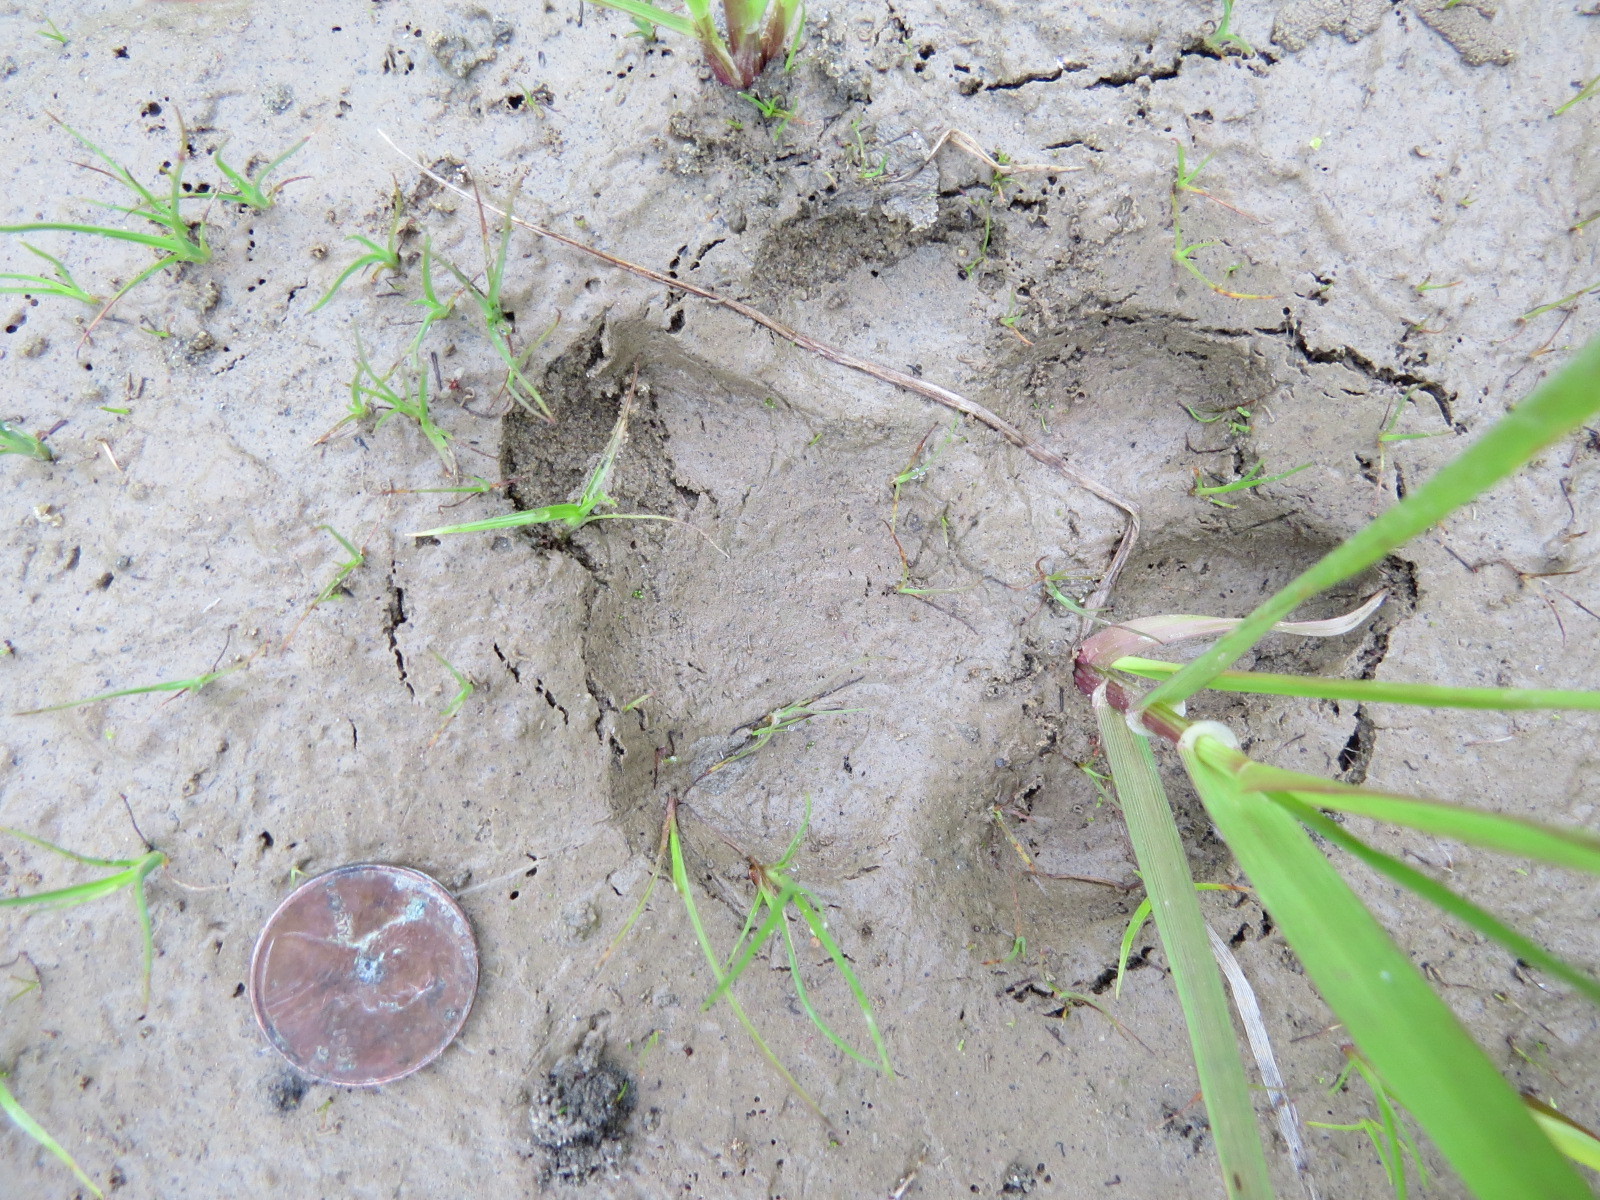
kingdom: Animalia
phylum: Chordata
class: Mammalia
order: Carnivora
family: Felidae
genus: Puma
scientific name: Puma concolor
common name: Puma
